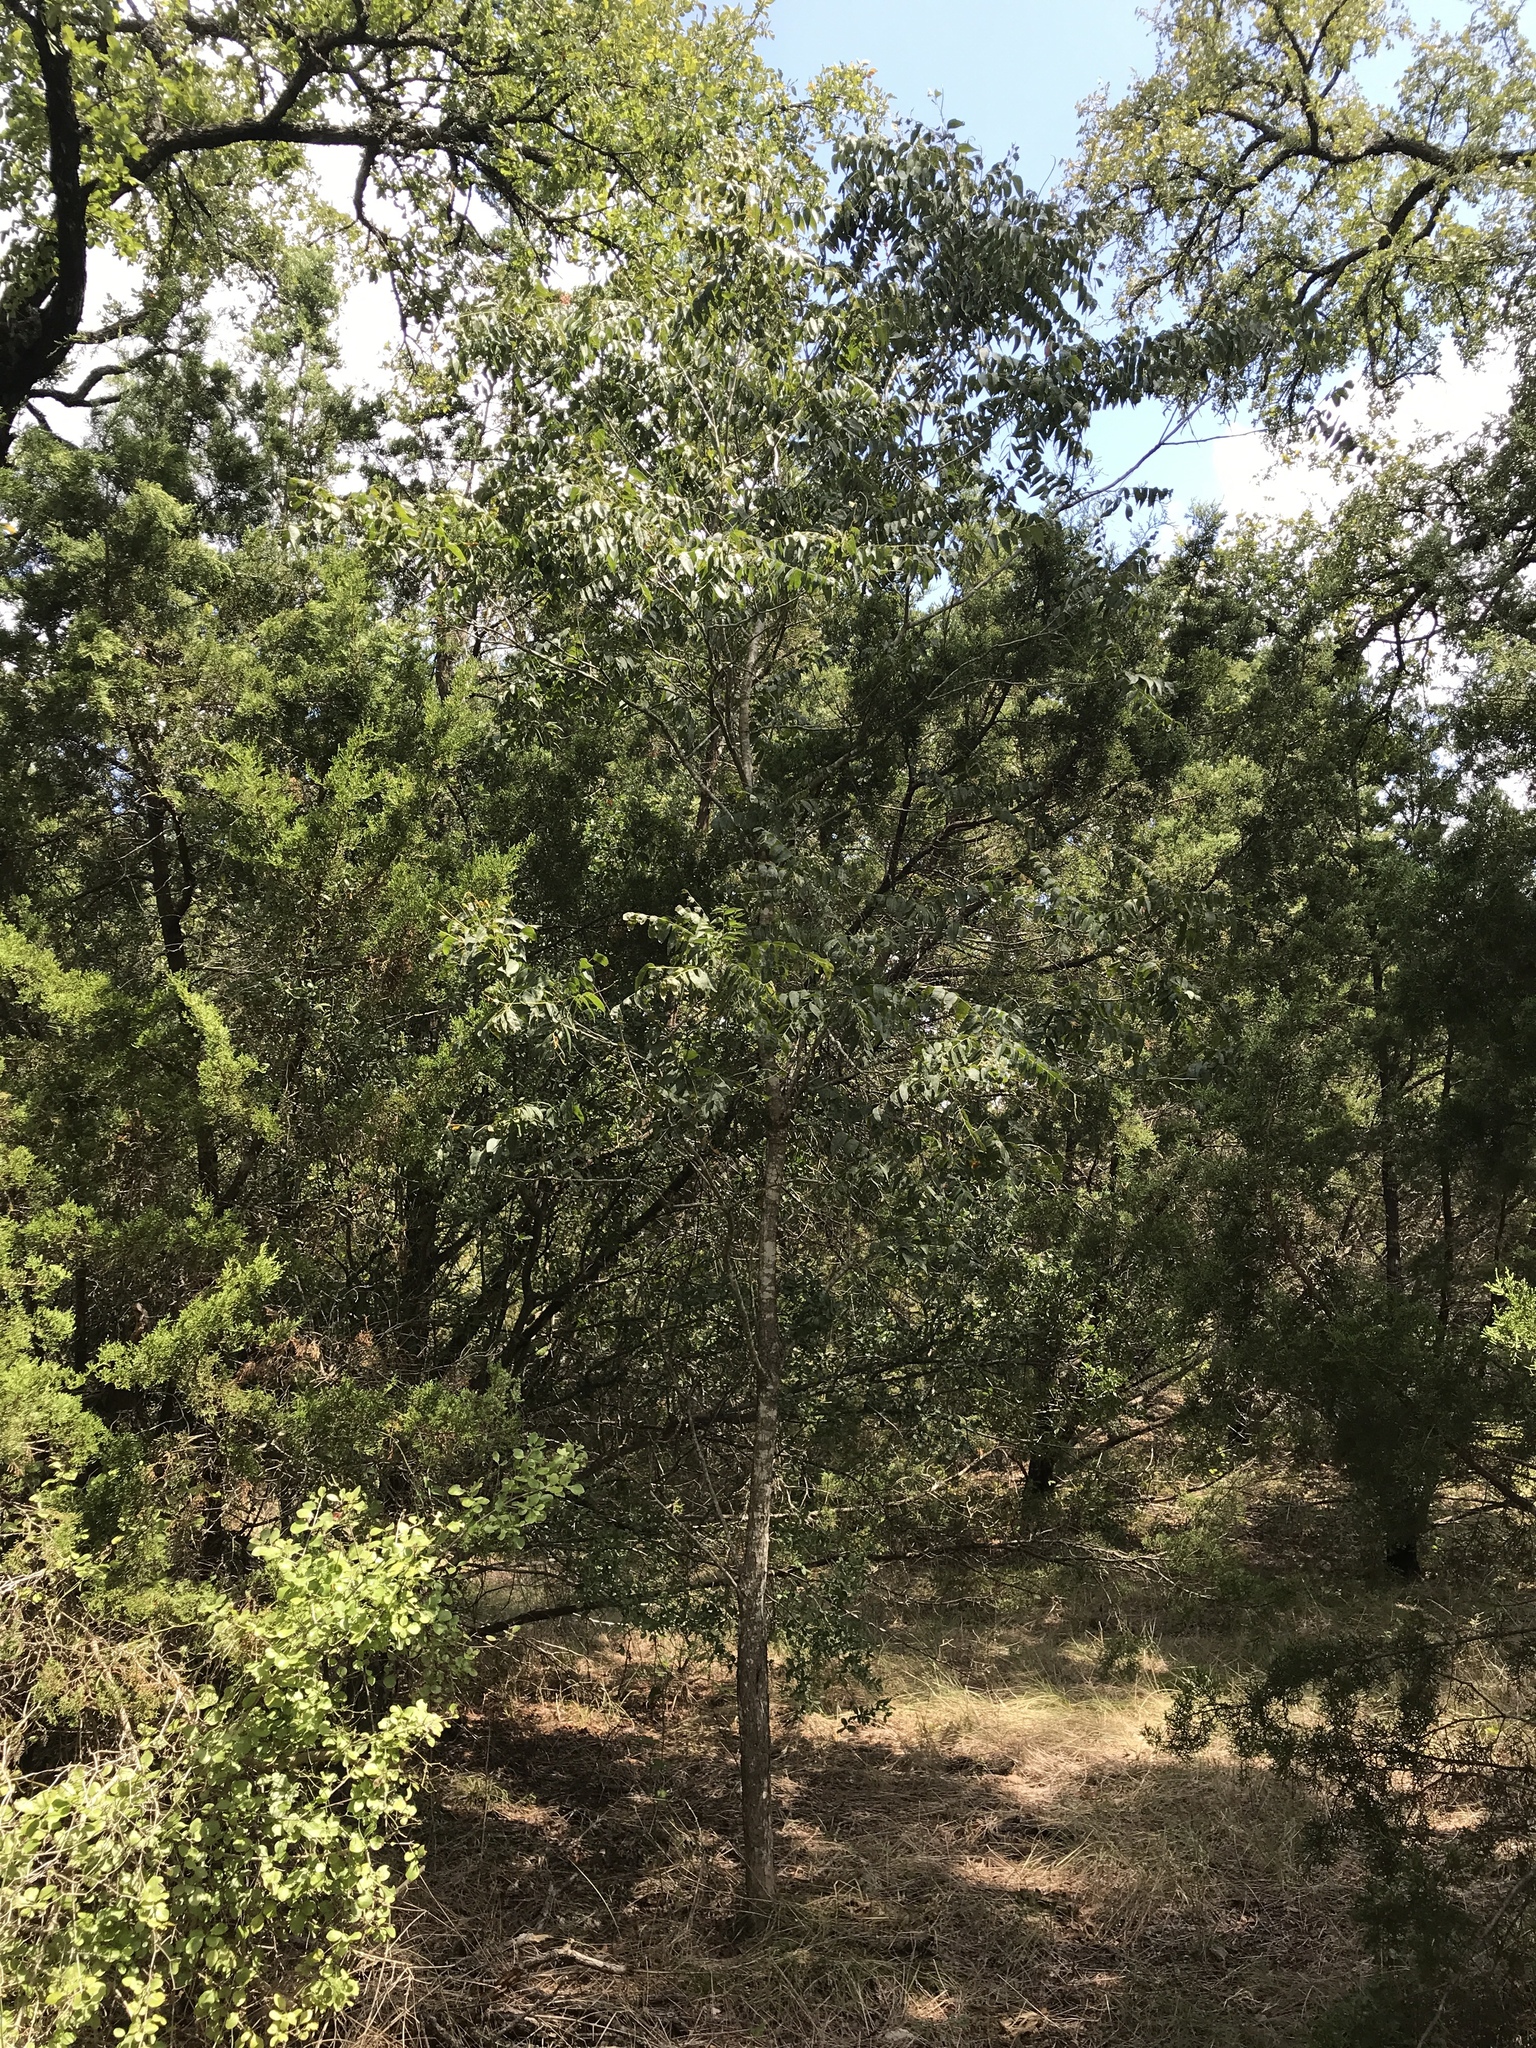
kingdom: Plantae
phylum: Tracheophyta
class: Magnoliopsida
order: Sapindales
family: Sapindaceae
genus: Sapindus
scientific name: Sapindus drummondii
